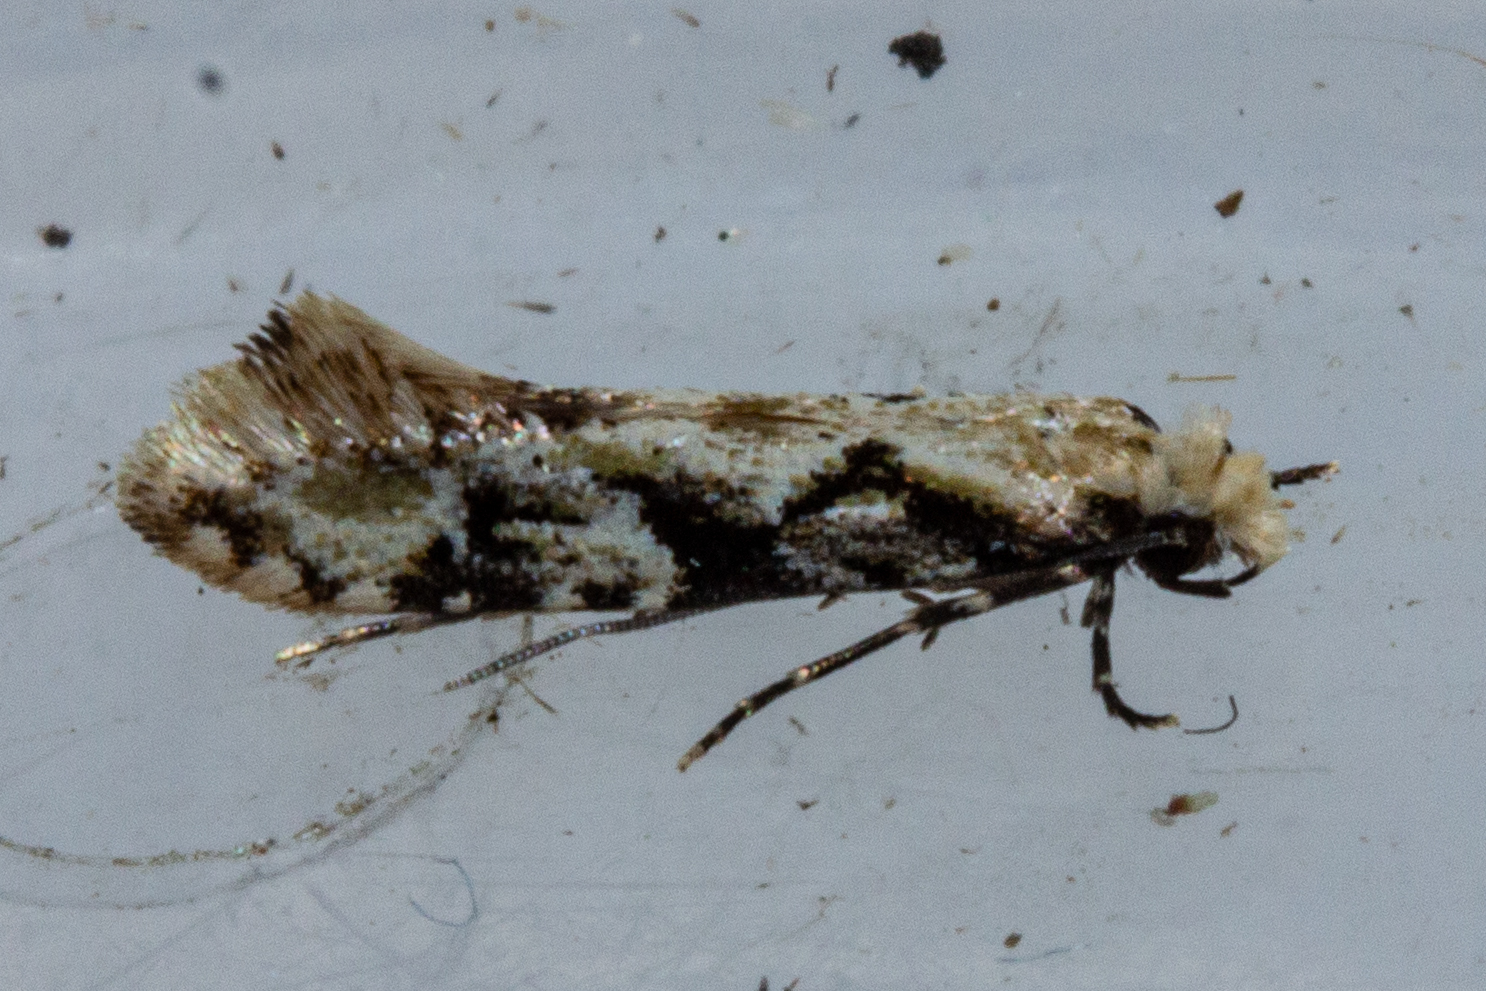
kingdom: Animalia
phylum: Arthropoda
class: Insecta
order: Lepidoptera
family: Tineidae
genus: Crypsitricha
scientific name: Crypsitricha mesotypa
